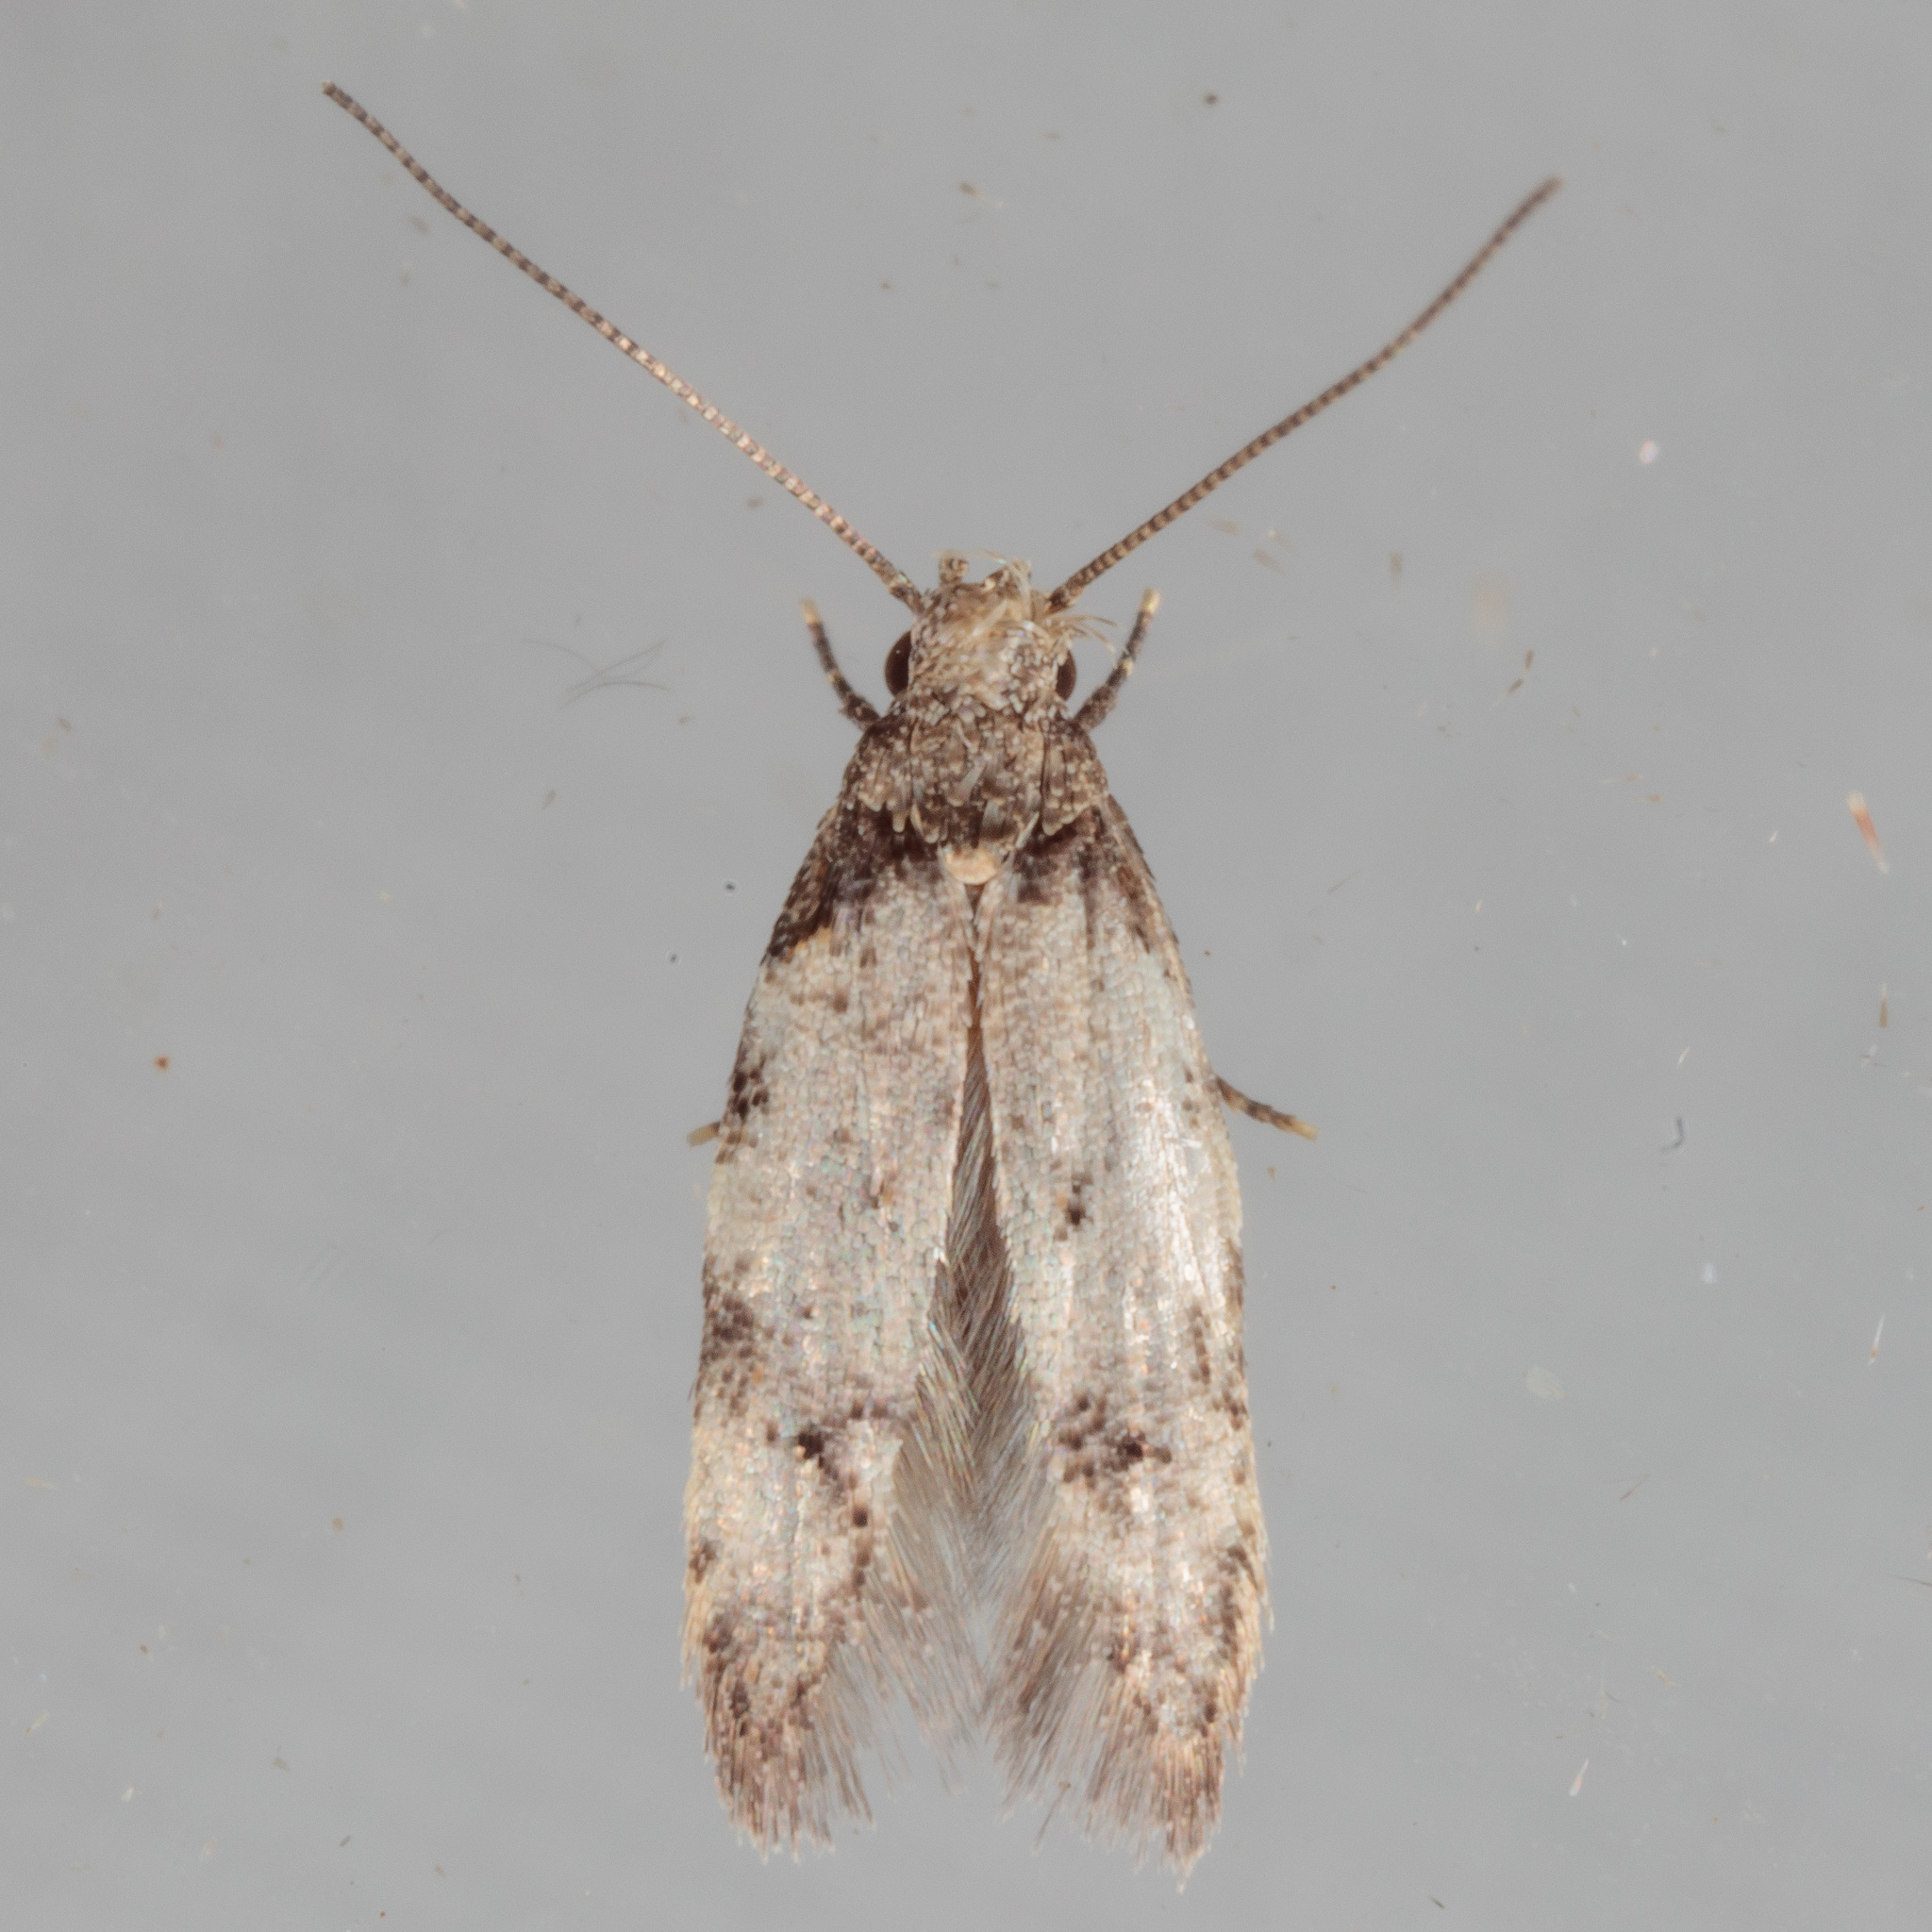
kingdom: Animalia
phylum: Arthropoda
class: Insecta
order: Lepidoptera
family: Autostichidae
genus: Taygete
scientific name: Taygete attributella
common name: Triangle-marked twirler moth
